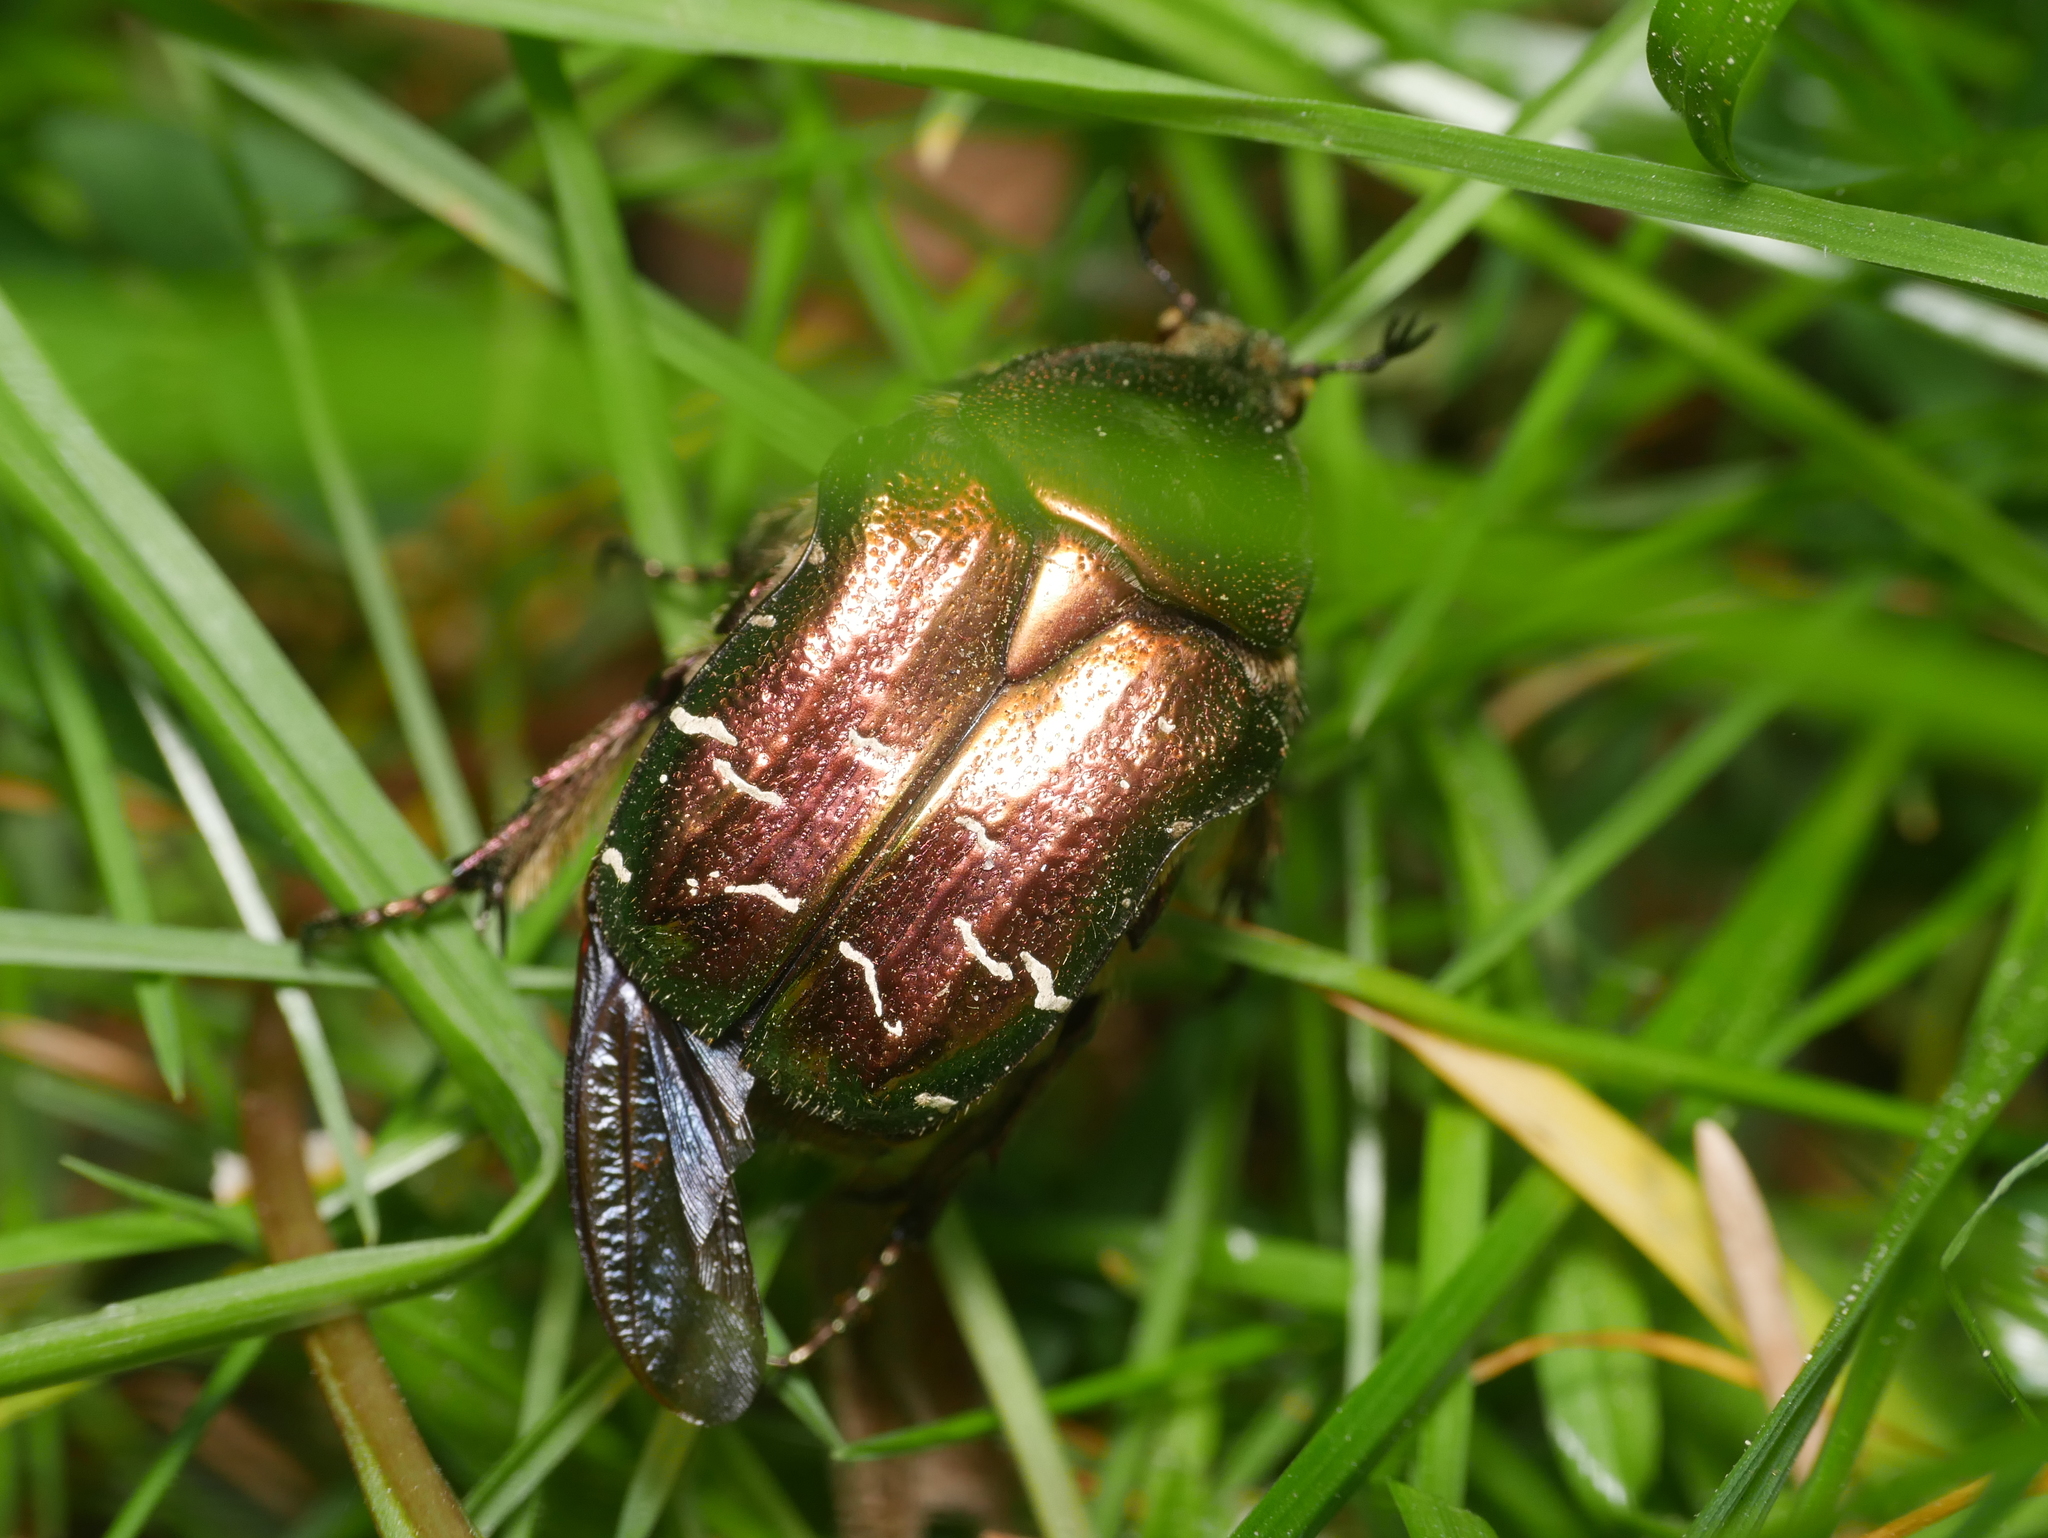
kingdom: Animalia
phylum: Arthropoda
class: Insecta
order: Coleoptera
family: Scarabaeidae
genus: Cetonia
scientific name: Cetonia aurata
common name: Rose chafer
